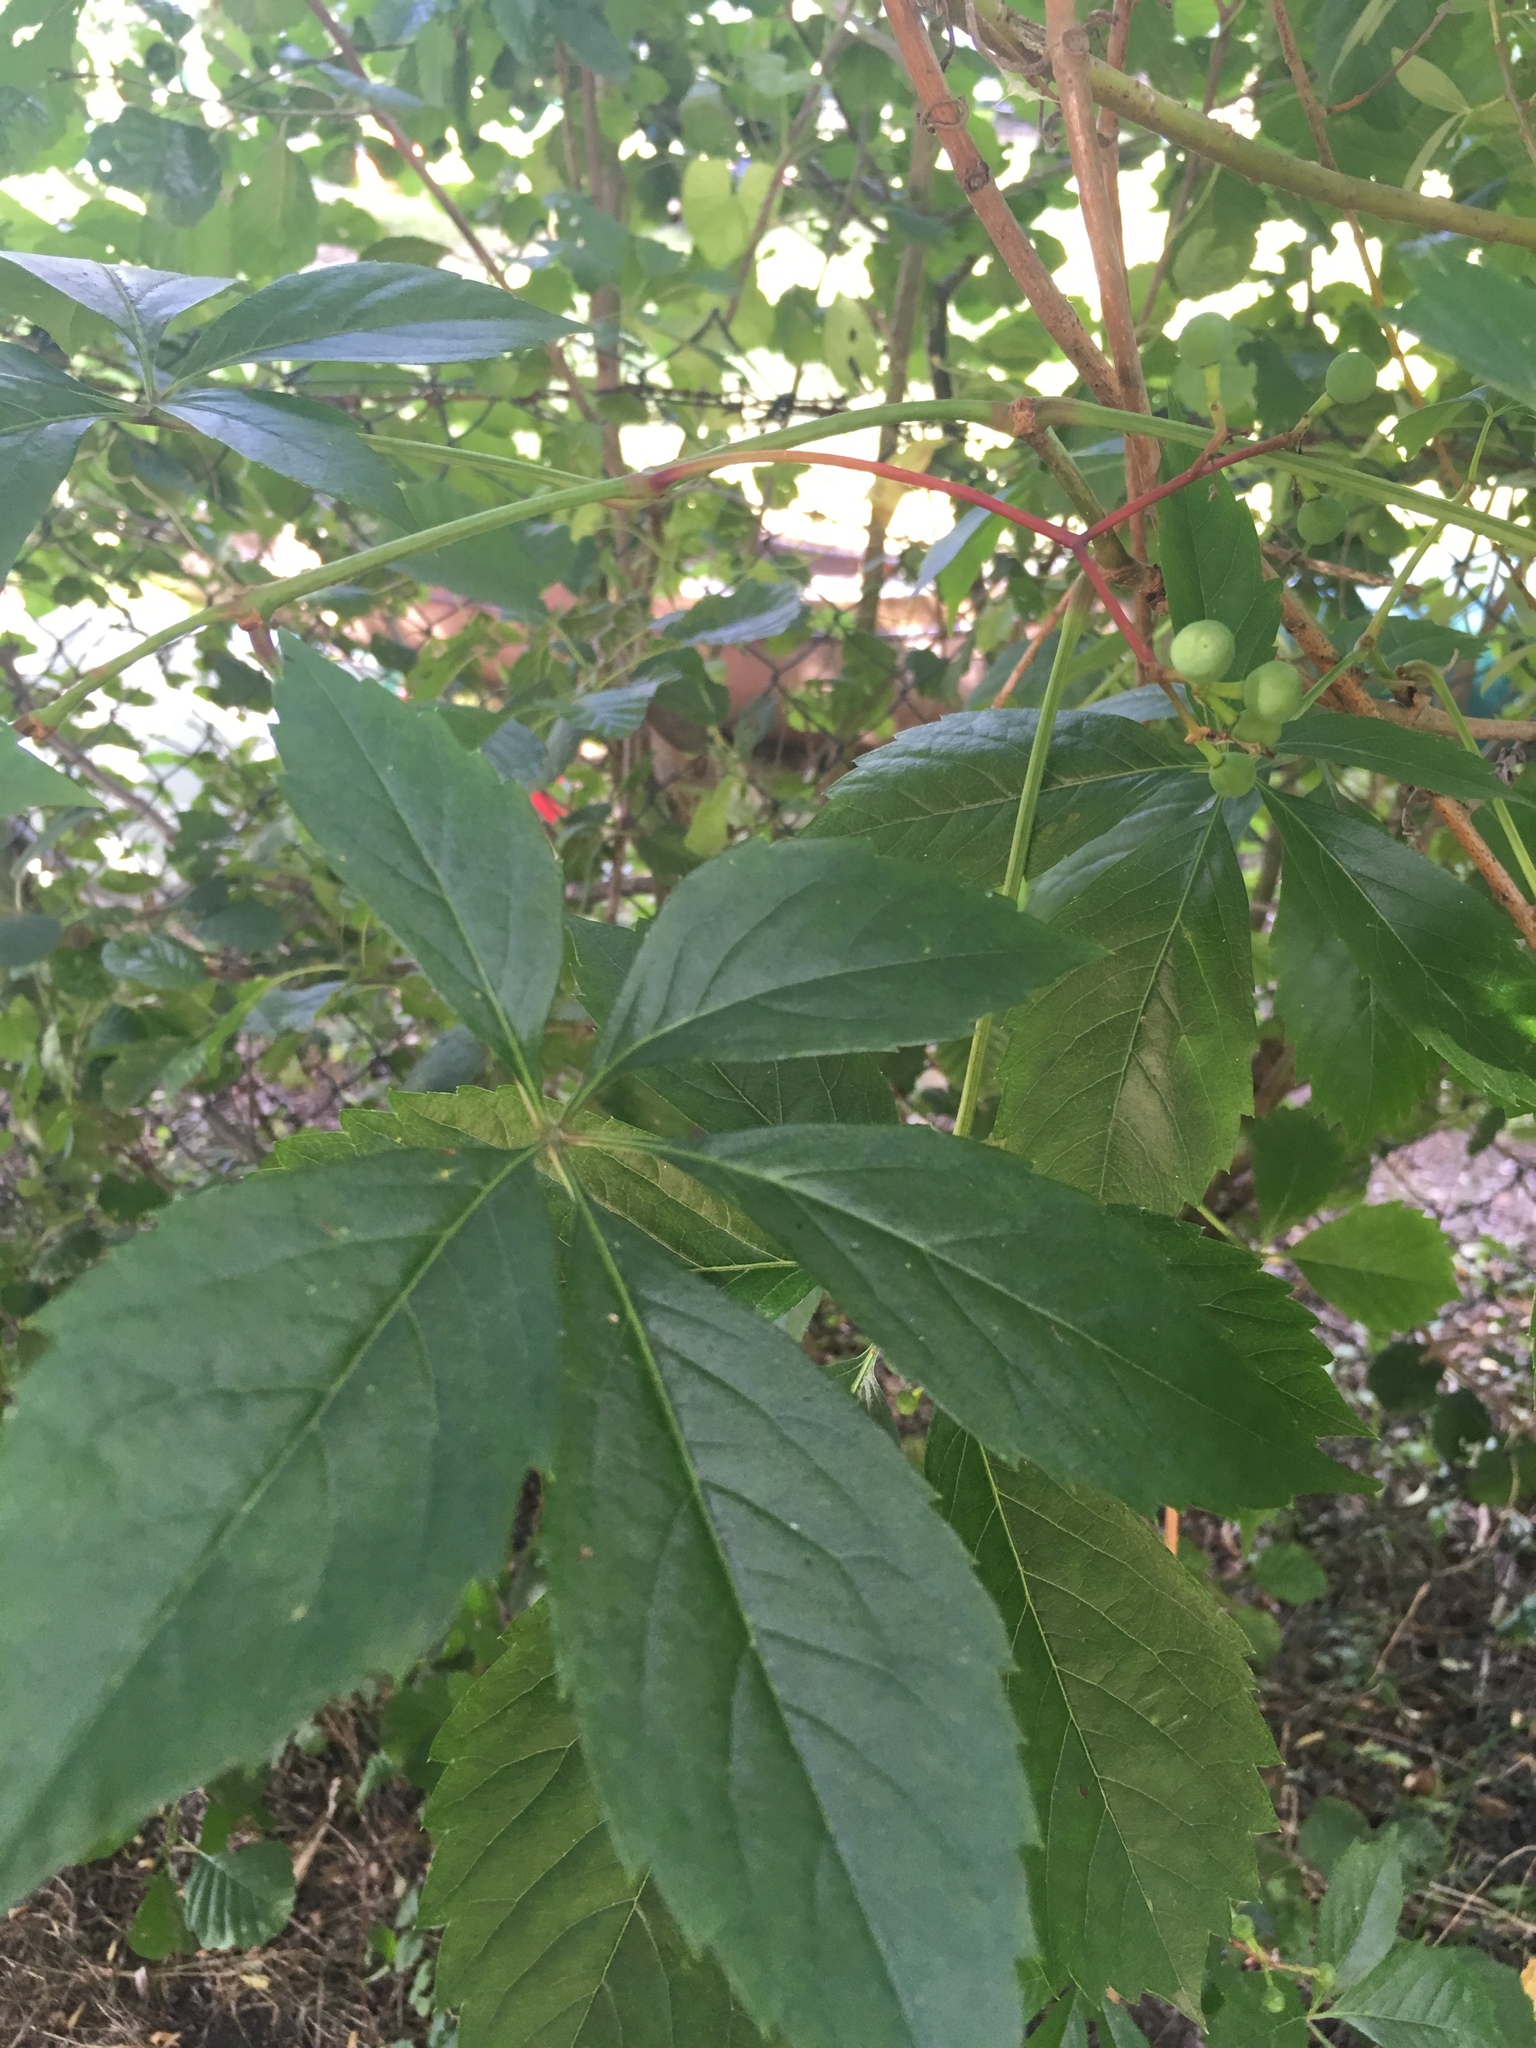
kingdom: Plantae
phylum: Tracheophyta
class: Magnoliopsida
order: Vitales
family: Vitaceae
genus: Parthenocissus
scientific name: Parthenocissus quinquefolia
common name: Virginia-creeper
